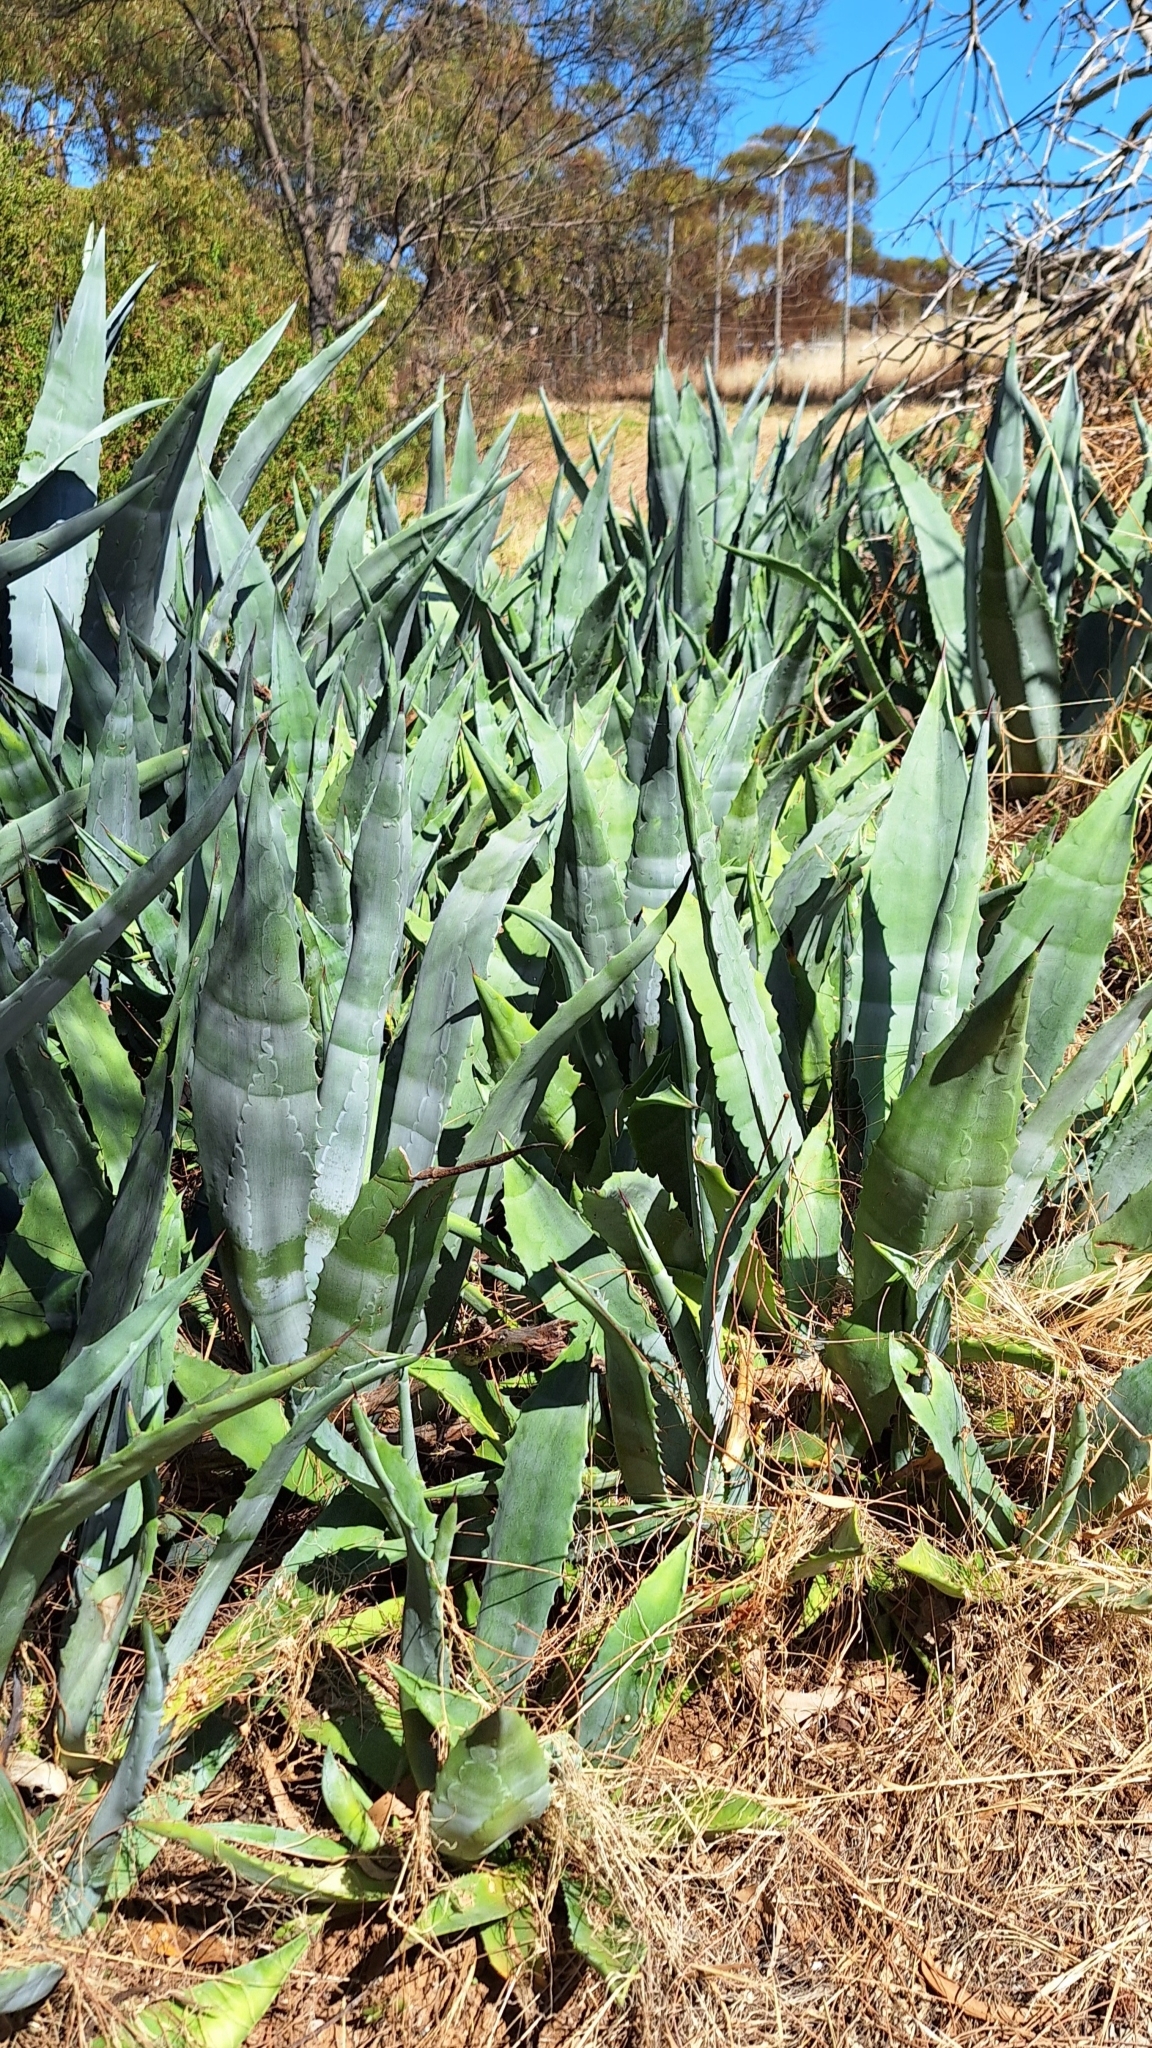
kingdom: Plantae
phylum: Tracheophyta
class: Liliopsida
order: Asparagales
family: Asparagaceae
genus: Agave
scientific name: Agave americana
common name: Centuryplant
